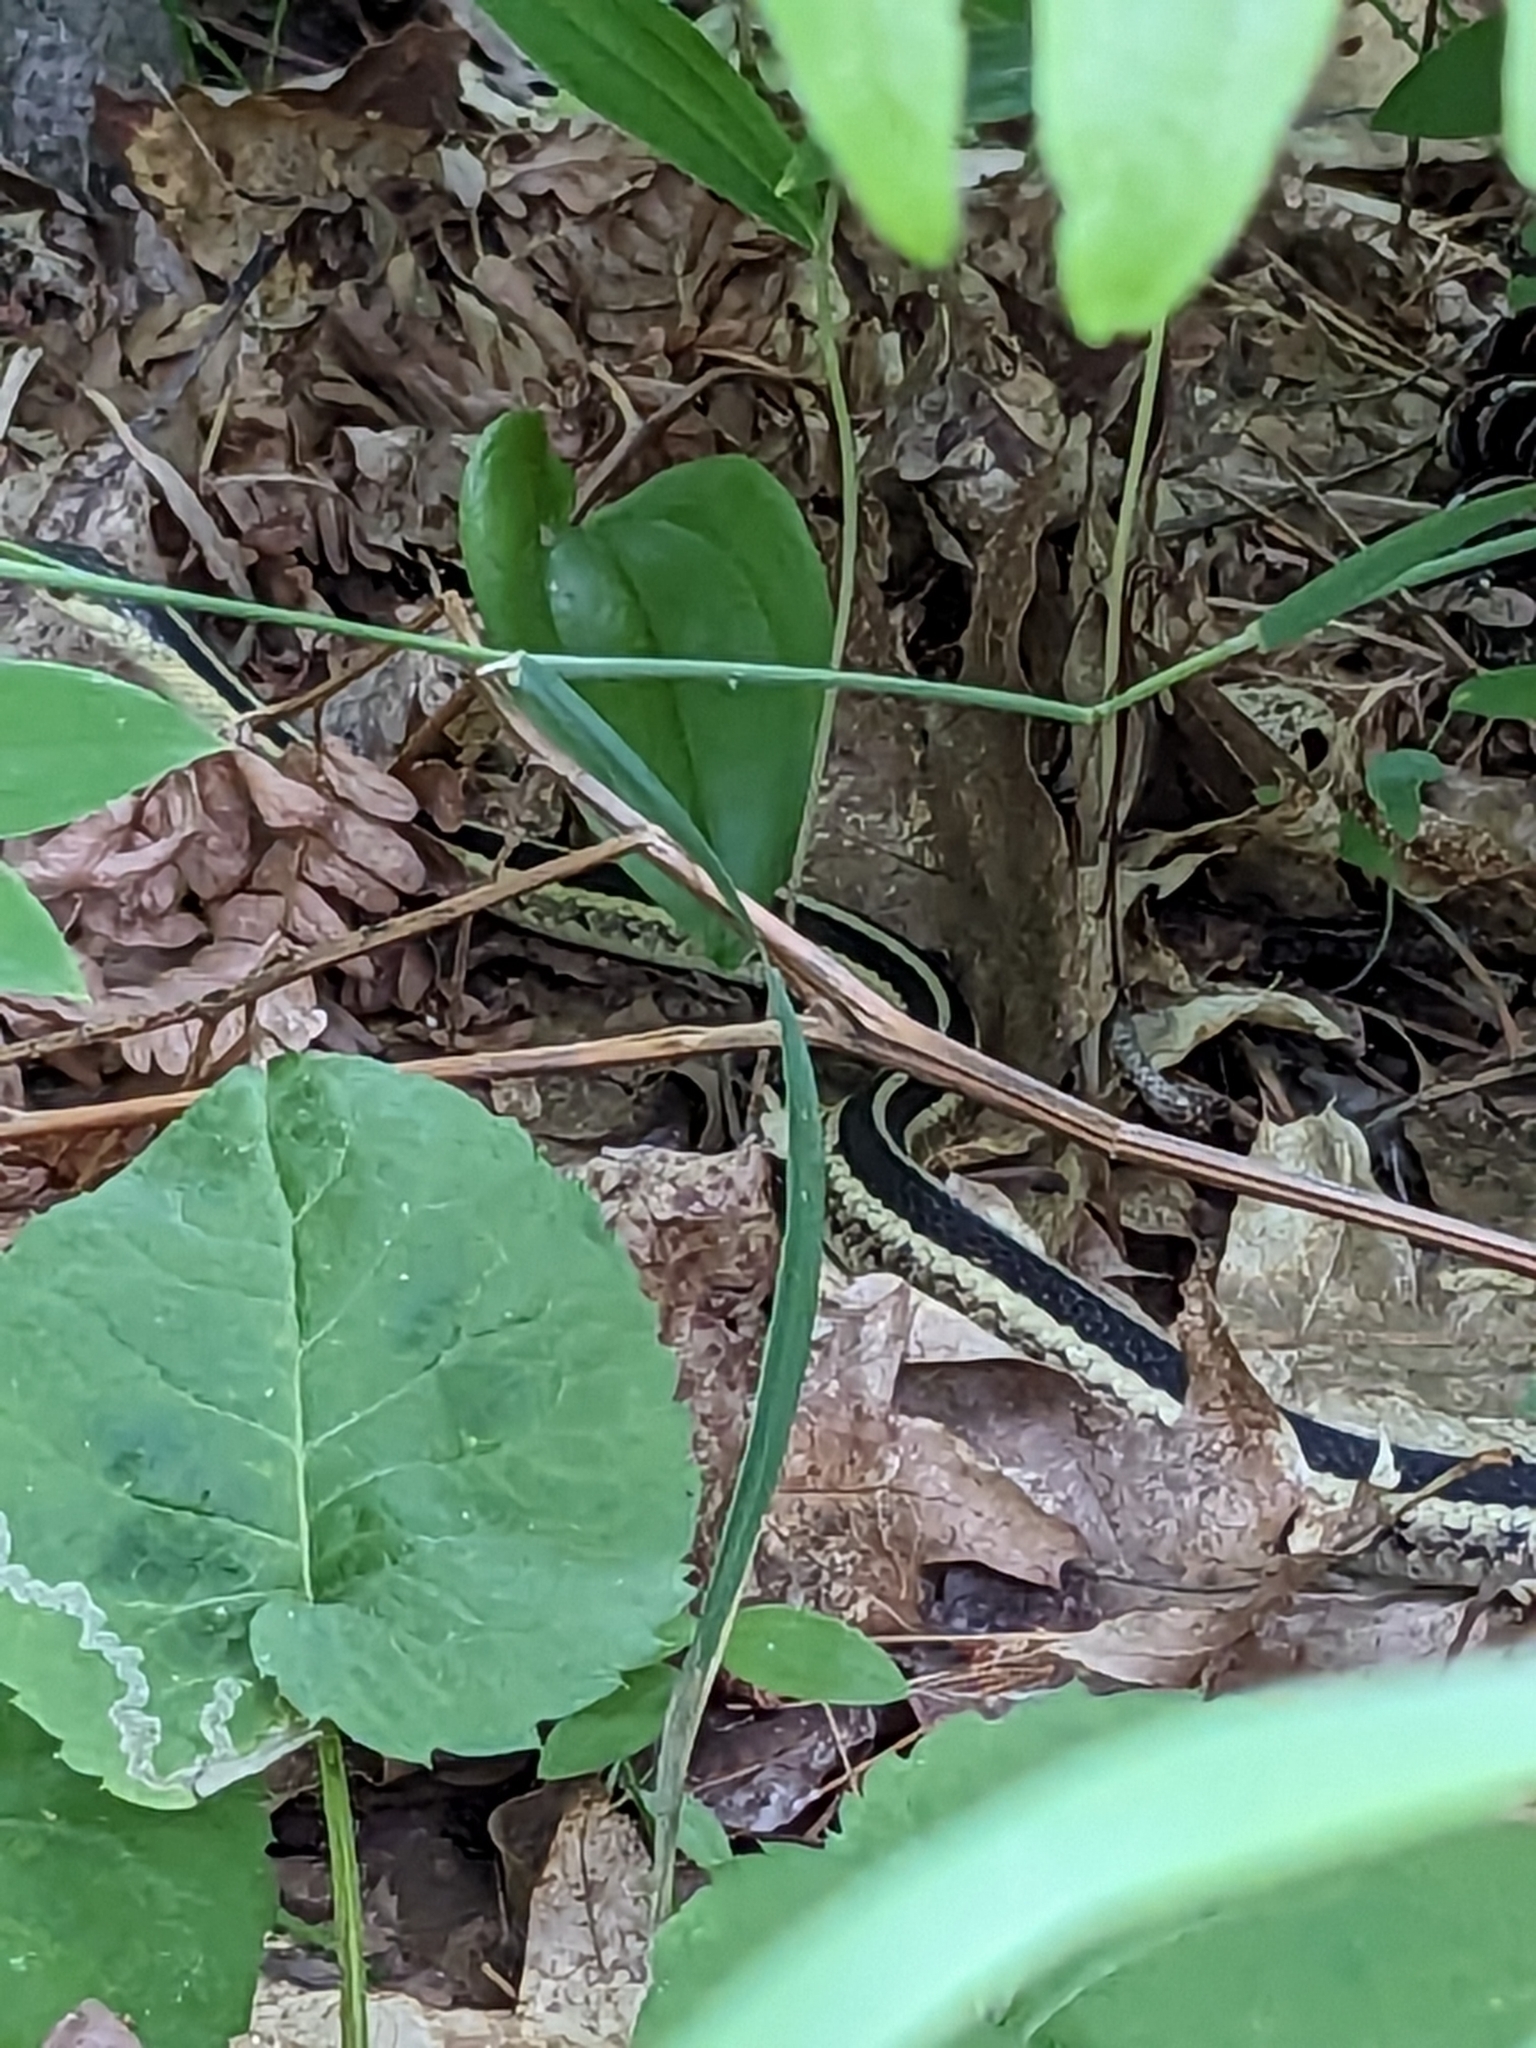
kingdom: Animalia
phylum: Chordata
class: Squamata
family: Colubridae
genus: Thamnophis
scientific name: Thamnophis sirtalis
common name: Common garter snake
